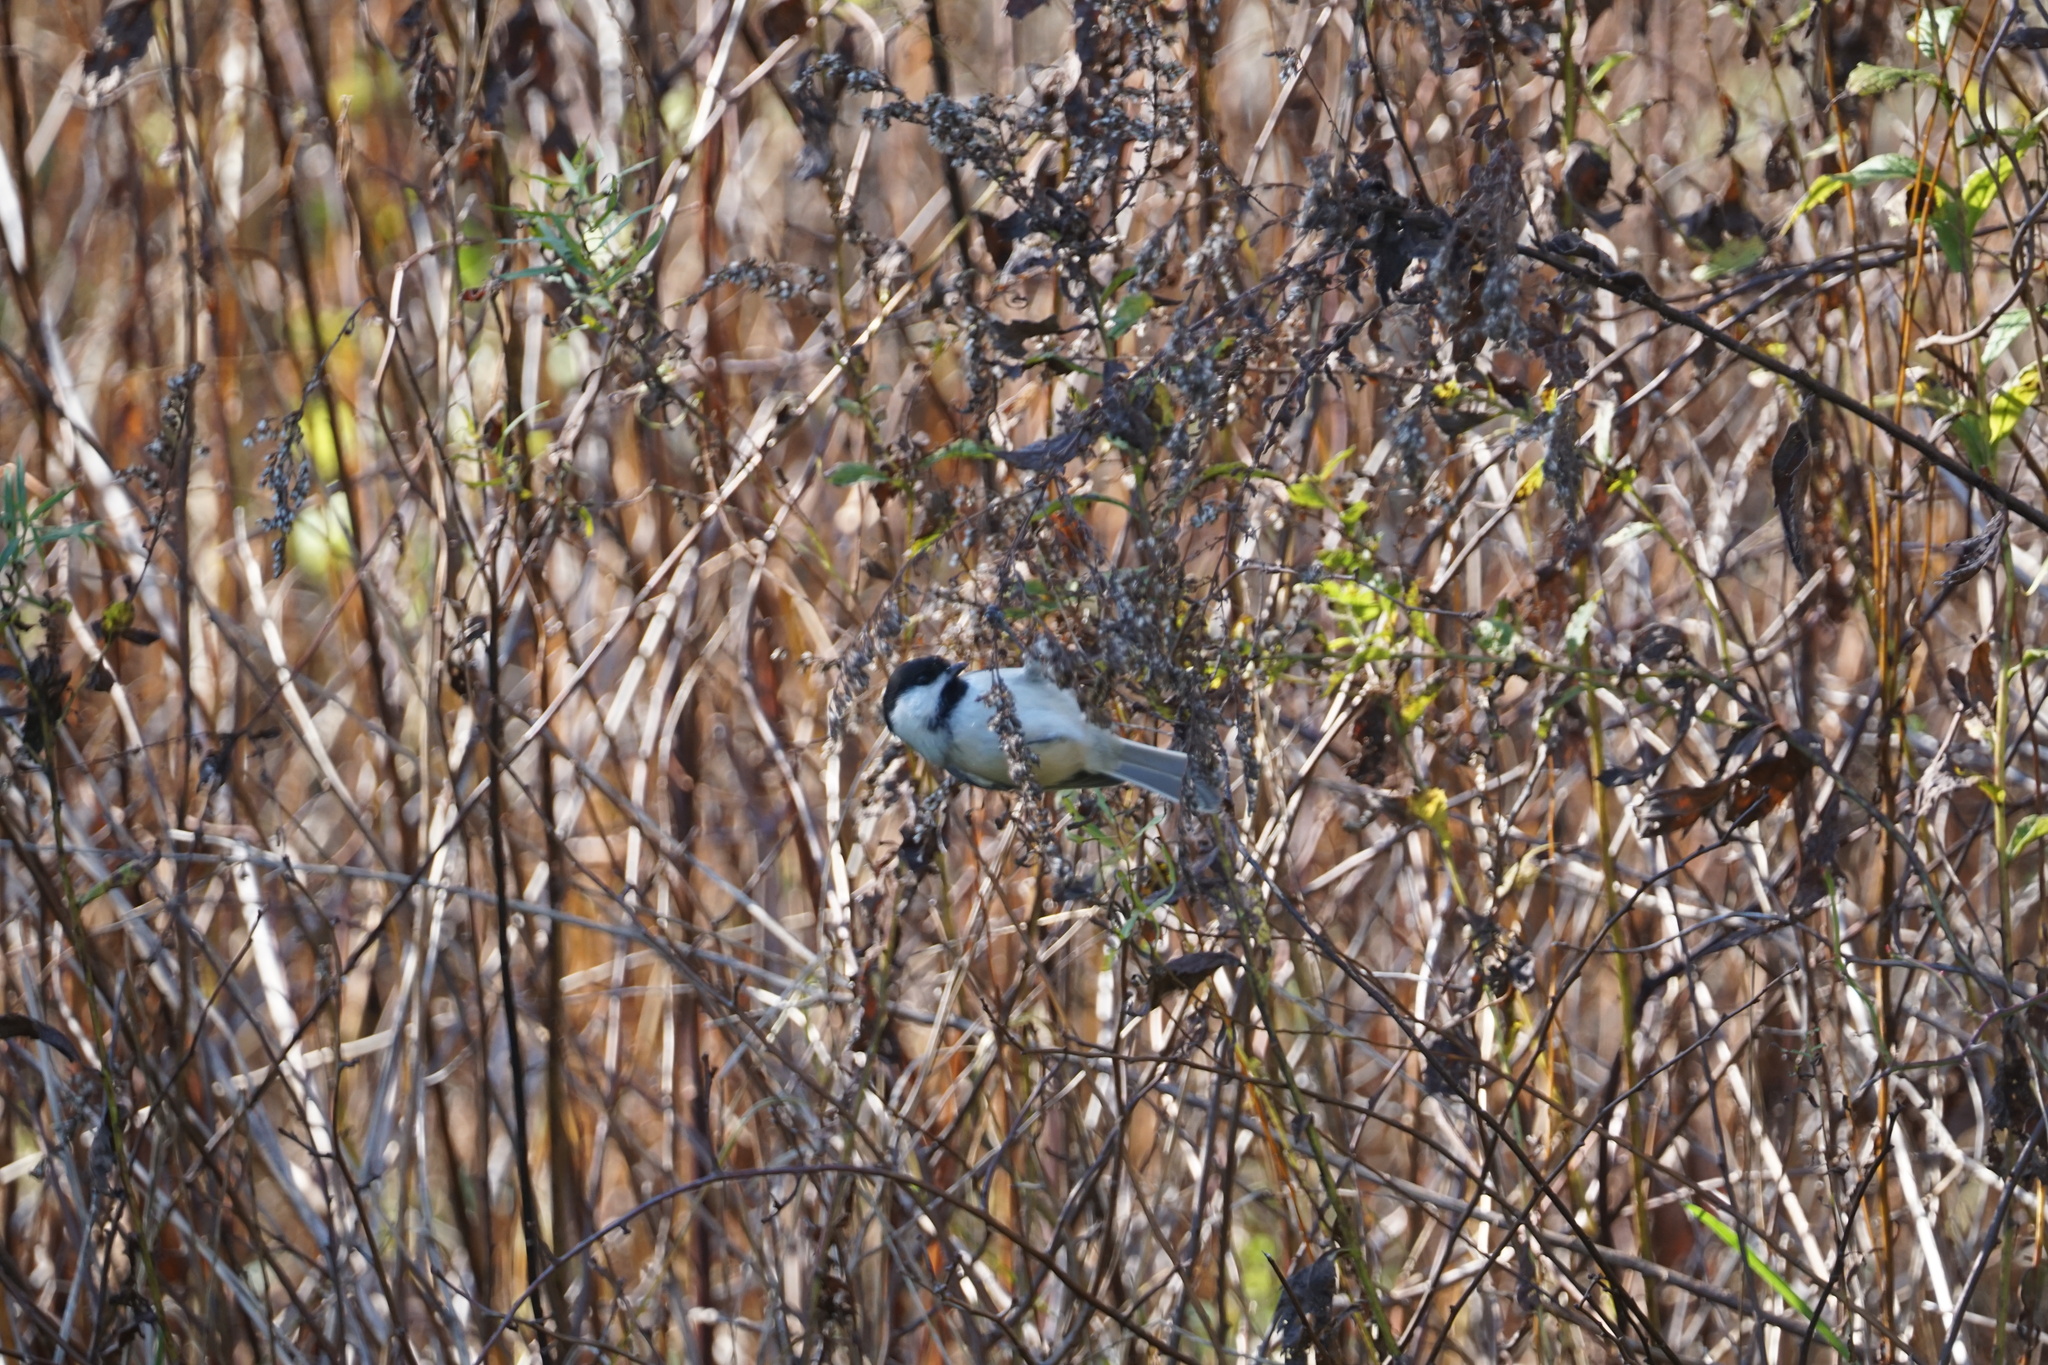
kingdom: Animalia
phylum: Chordata
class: Aves
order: Passeriformes
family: Paridae
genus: Poecile
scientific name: Poecile atricapillus
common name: Black-capped chickadee
